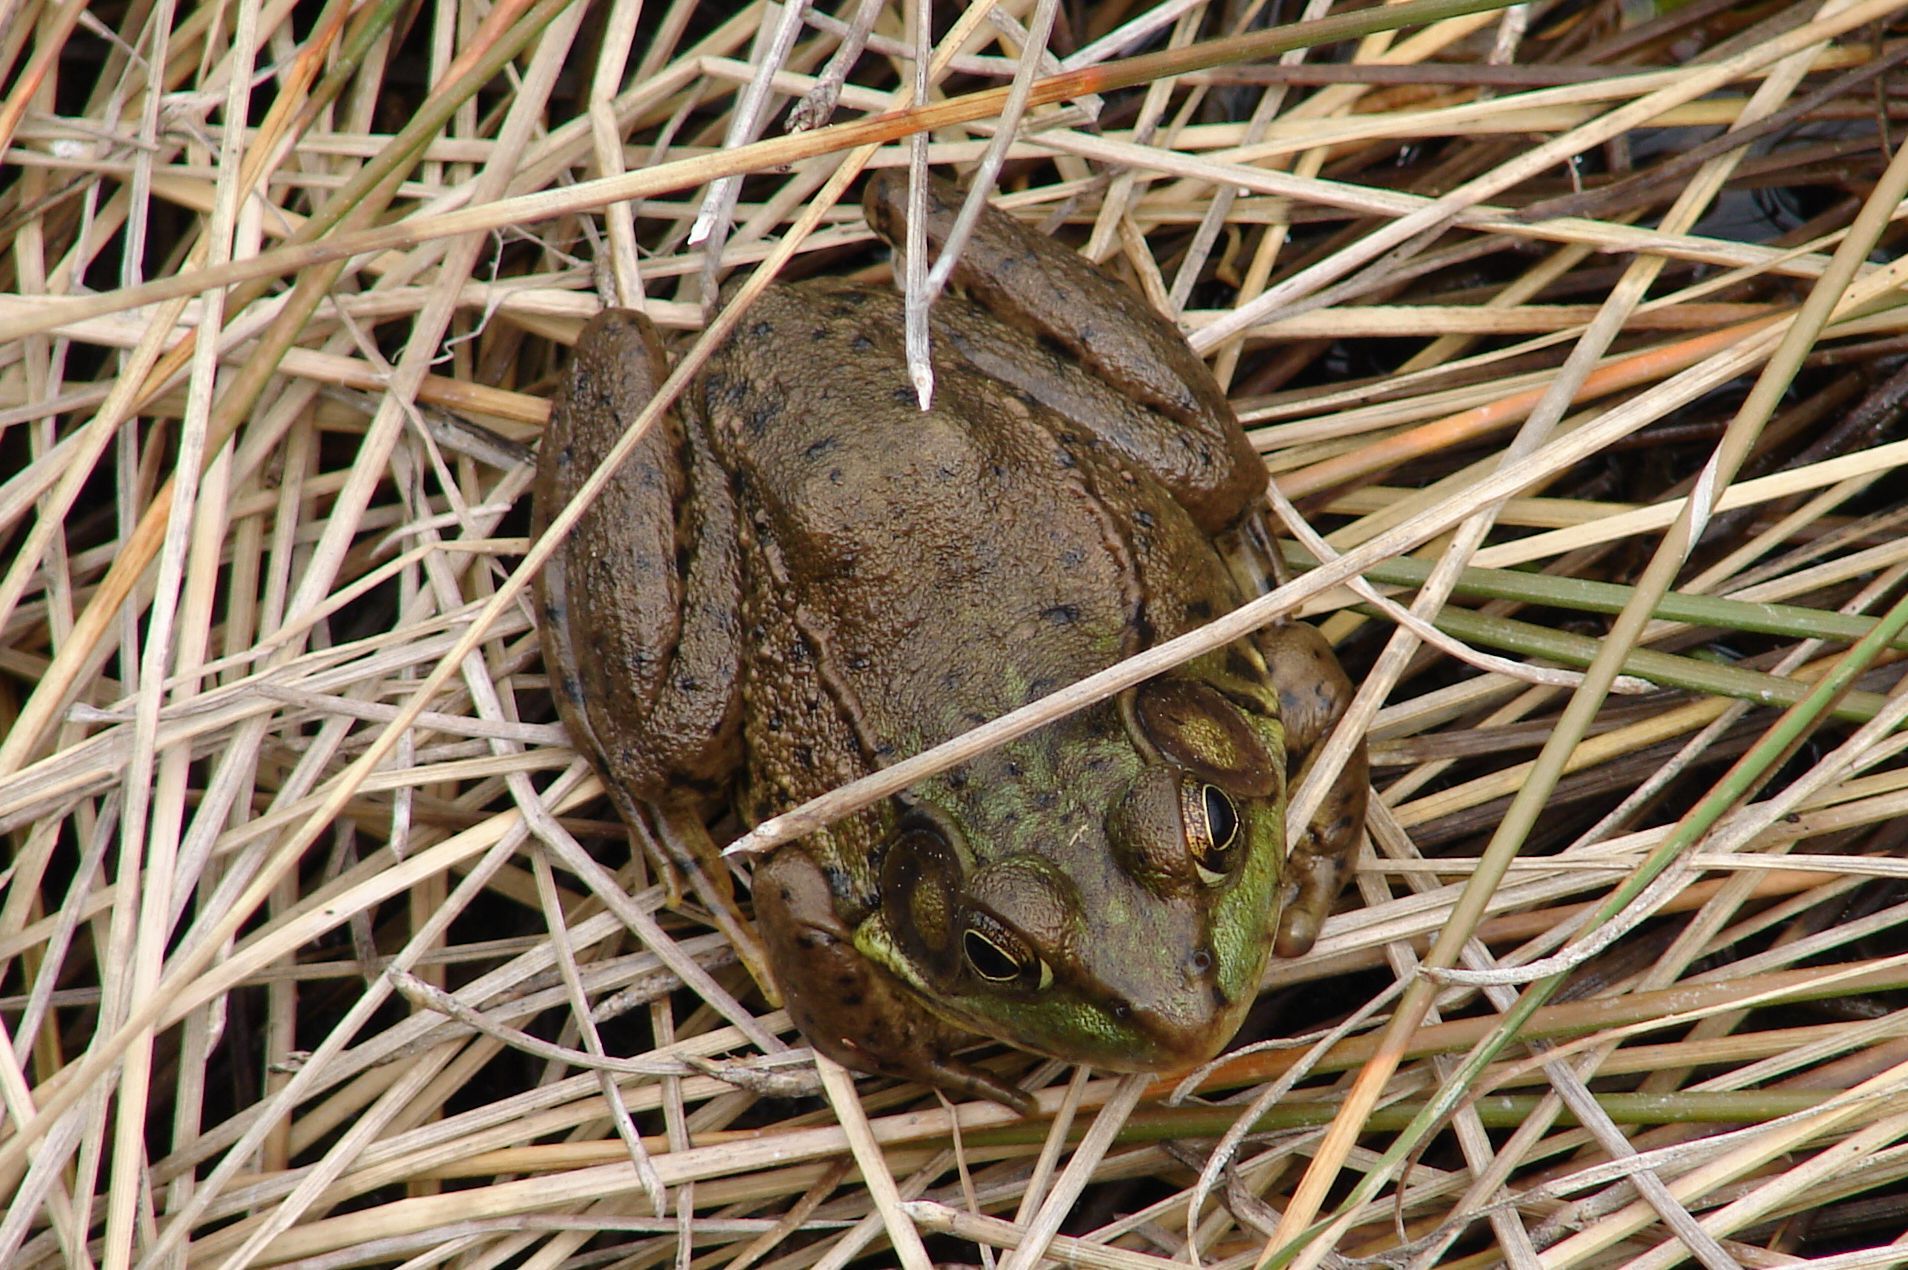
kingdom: Animalia
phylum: Chordata
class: Amphibia
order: Anura
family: Ranidae
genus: Lithobates
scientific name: Lithobates clamitans
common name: Green frog
